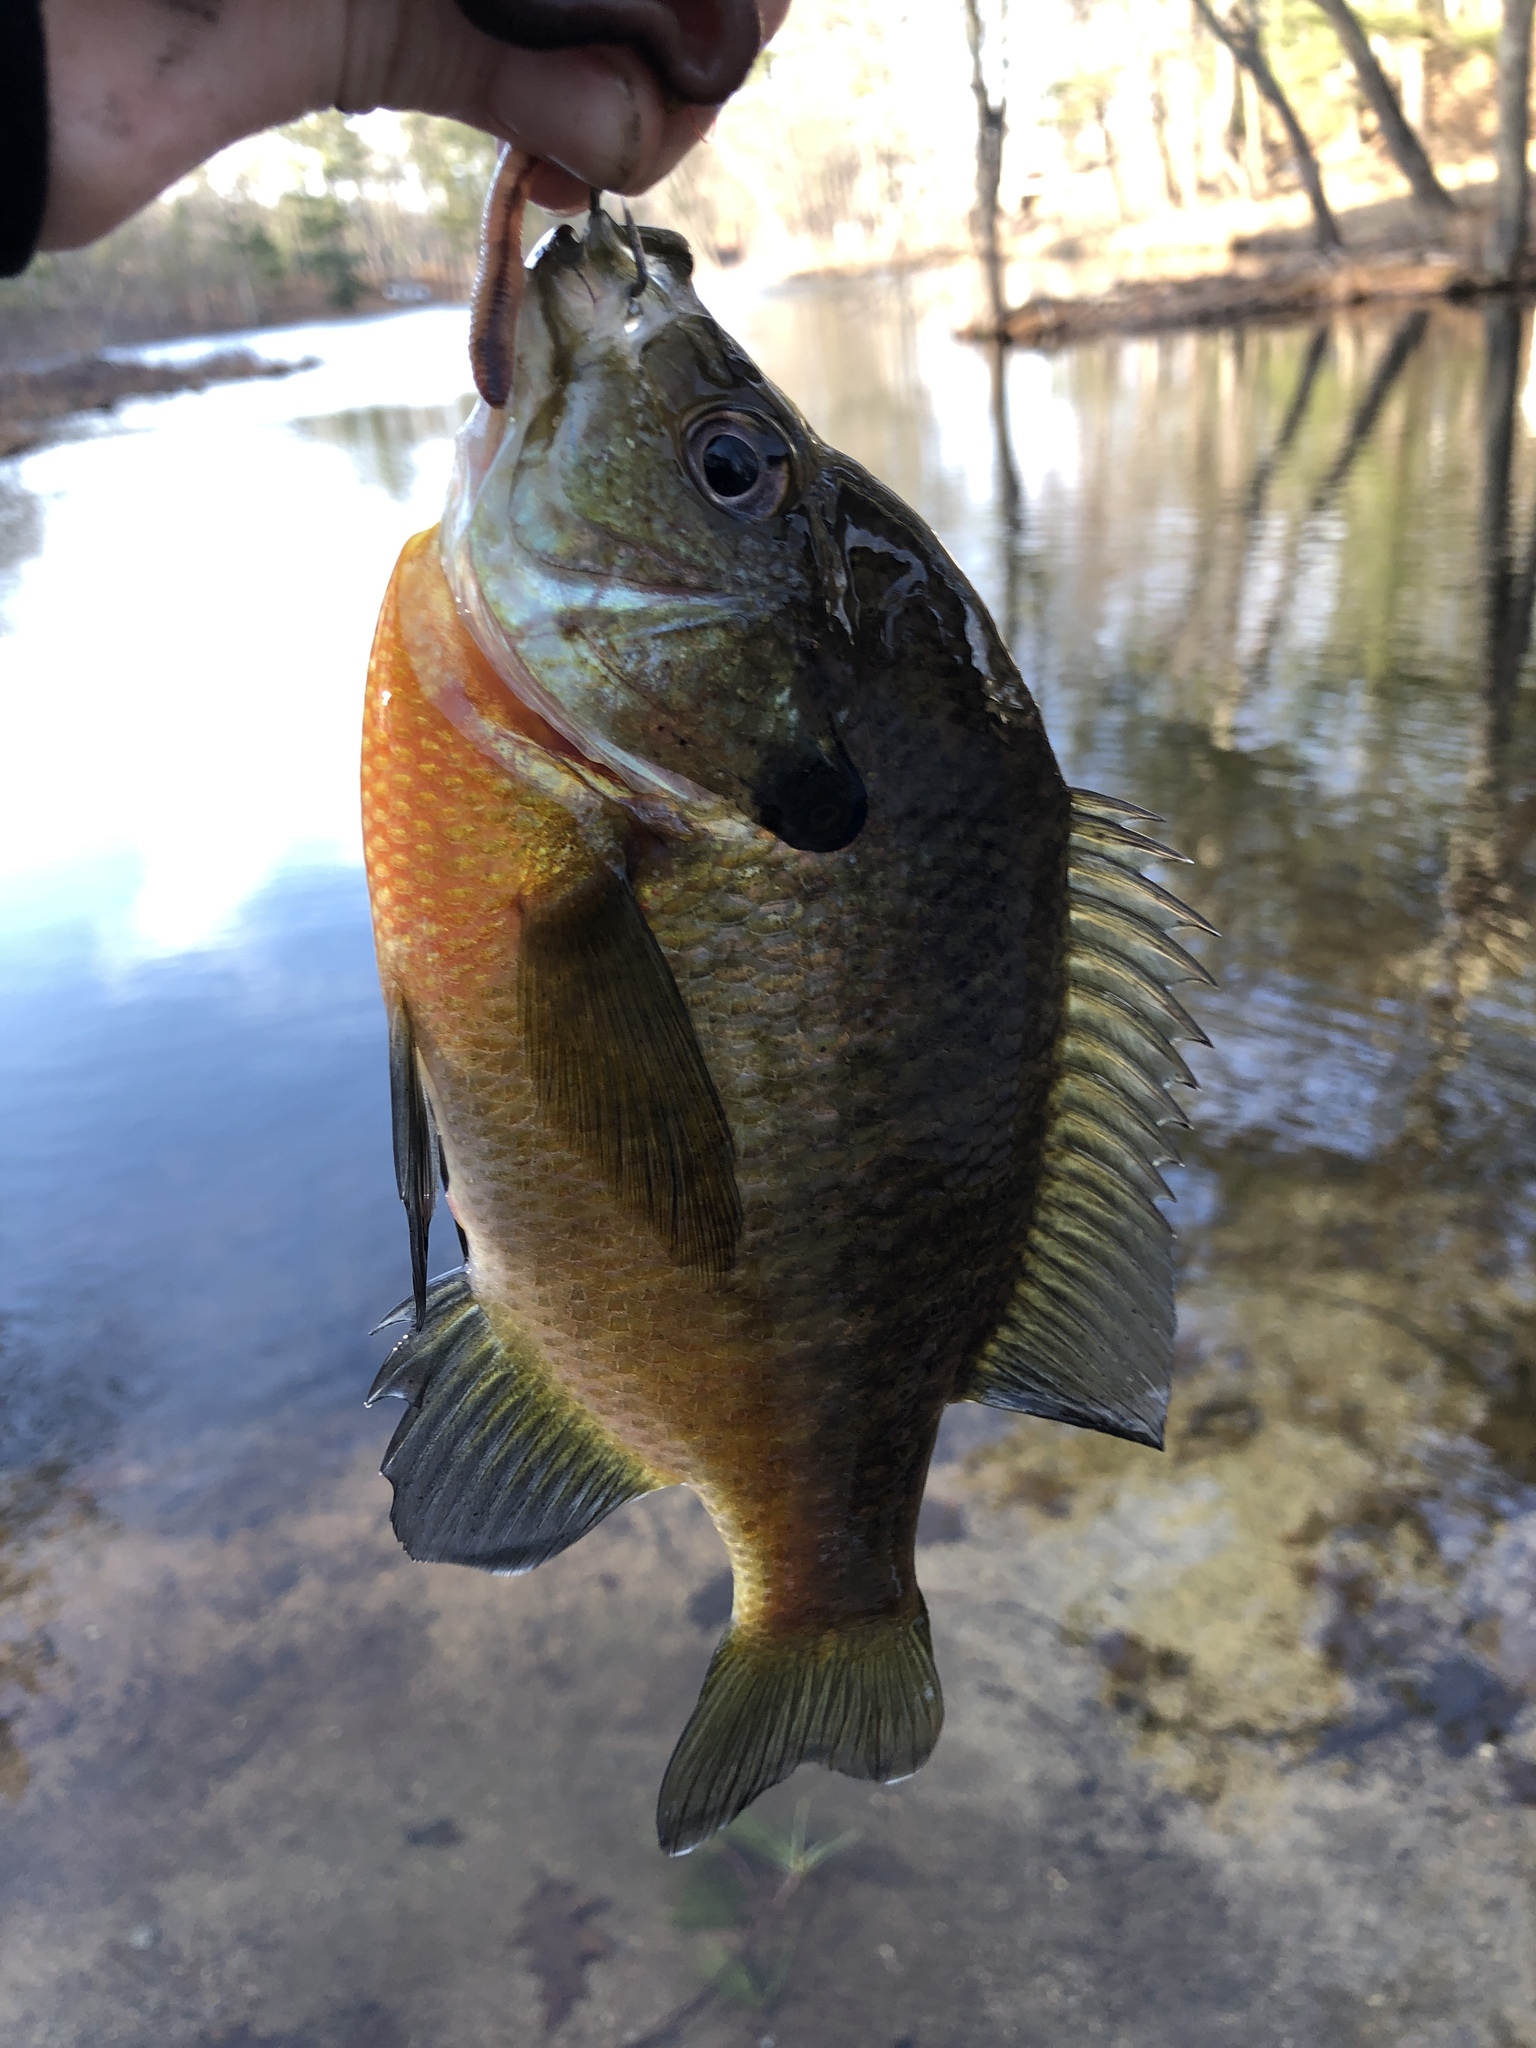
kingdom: Animalia
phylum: Chordata
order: Perciformes
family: Centrarchidae
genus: Lepomis
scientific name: Lepomis macrochirus
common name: Bluegill
